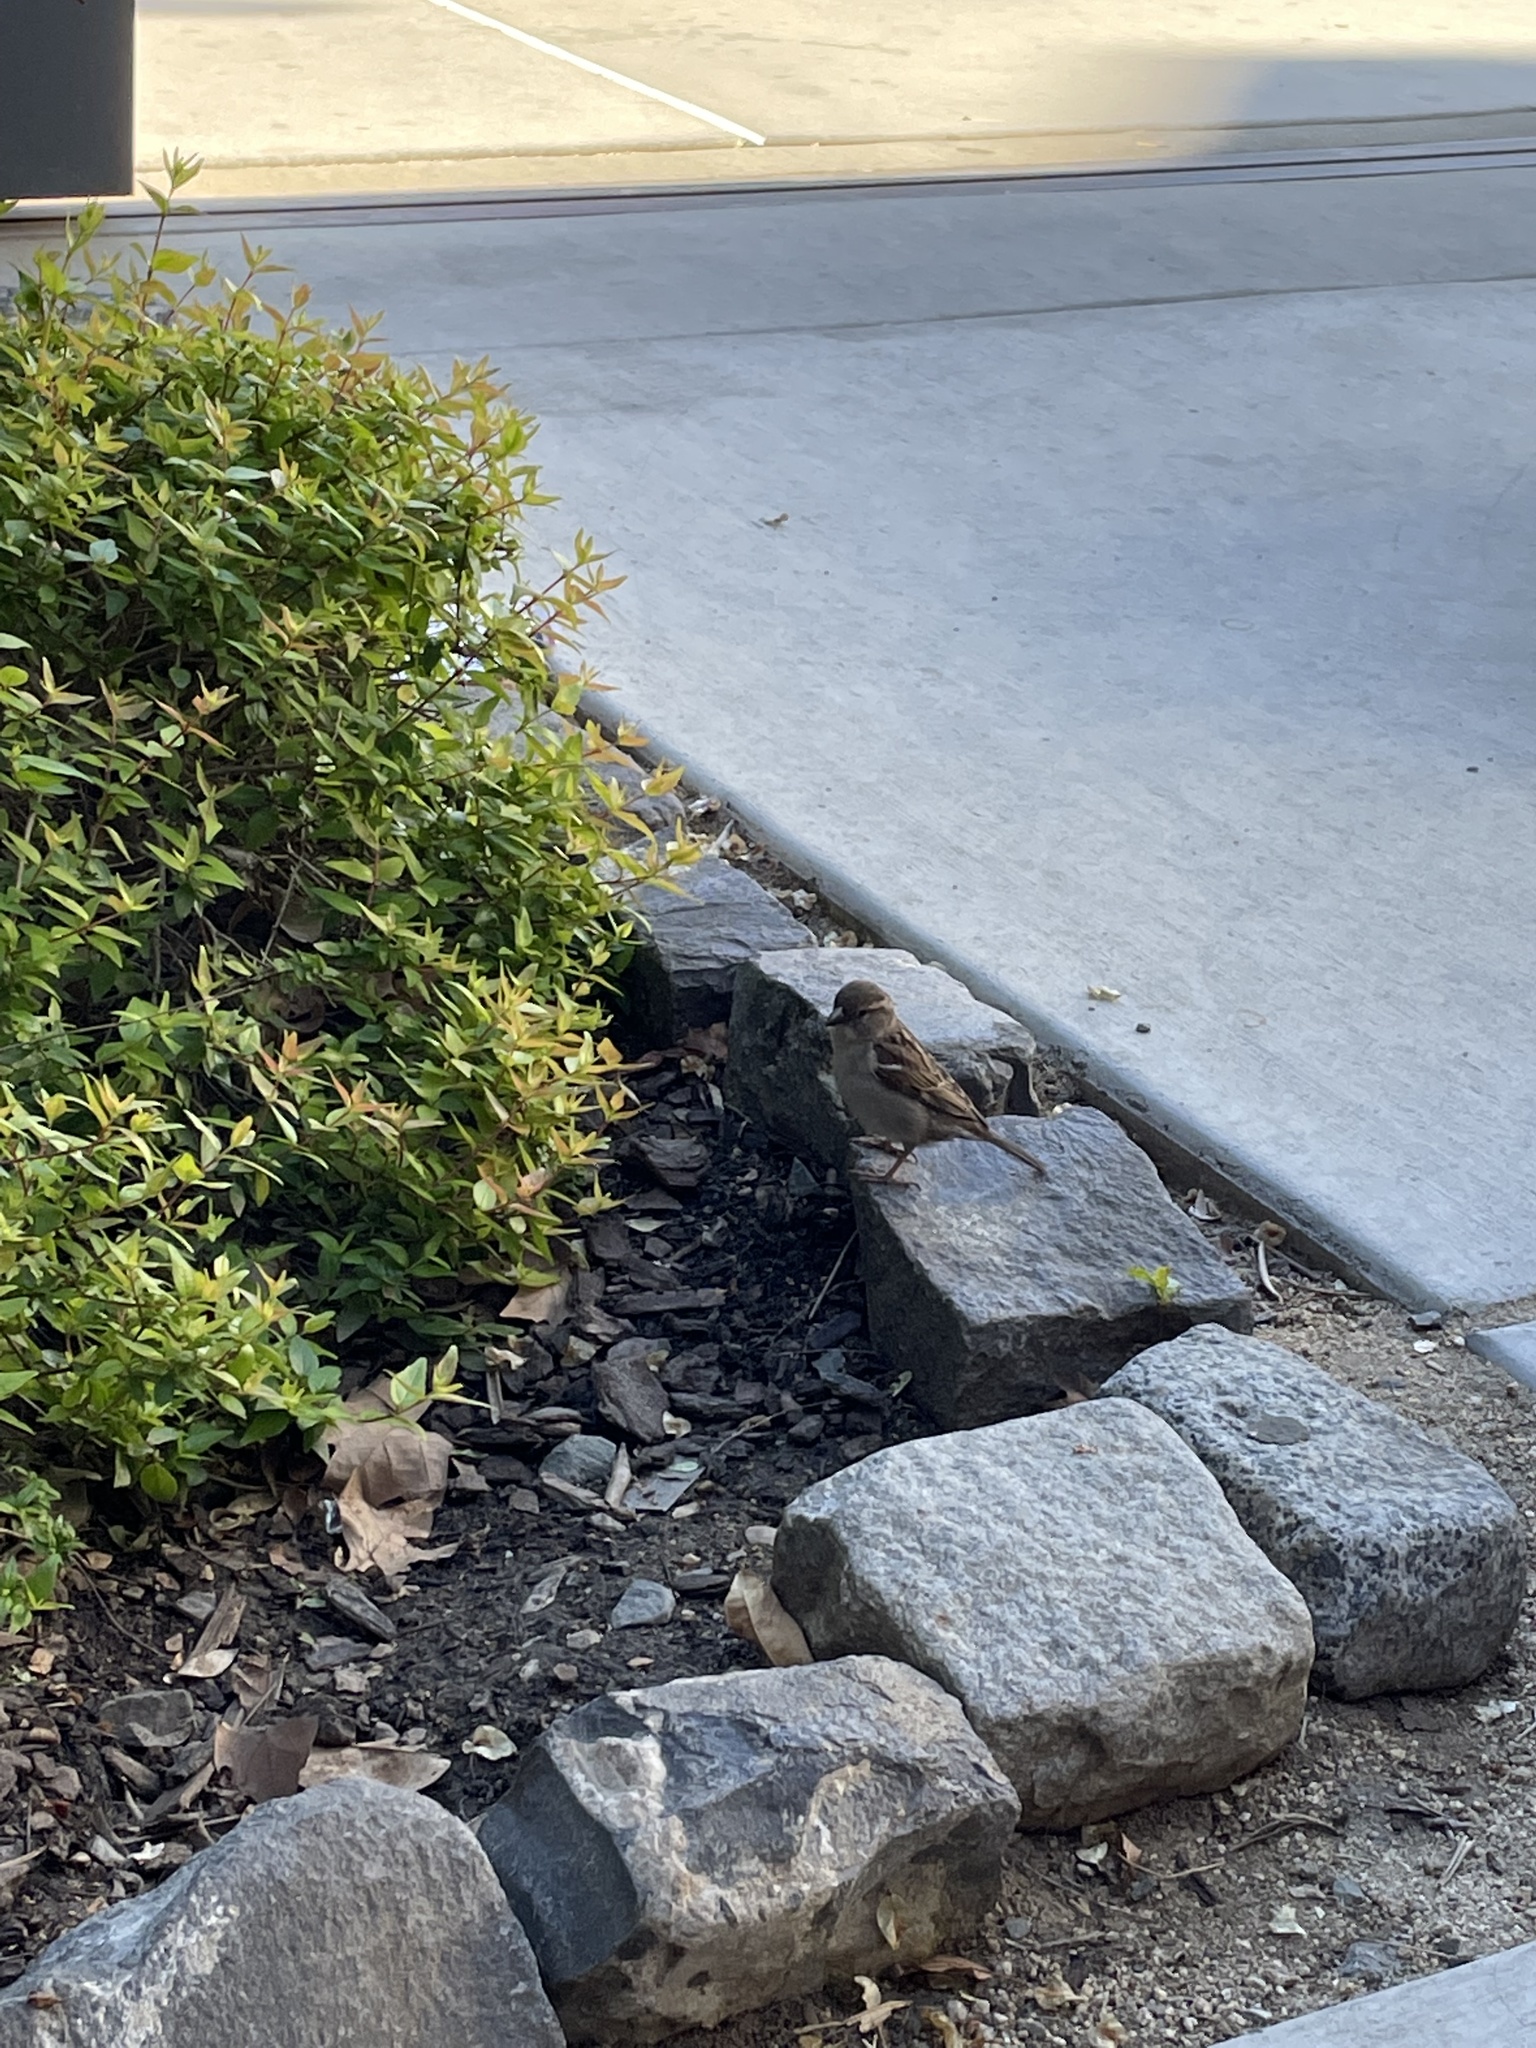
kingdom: Animalia
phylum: Chordata
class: Aves
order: Passeriformes
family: Passeridae
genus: Passer
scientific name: Passer domesticus
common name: House sparrow
